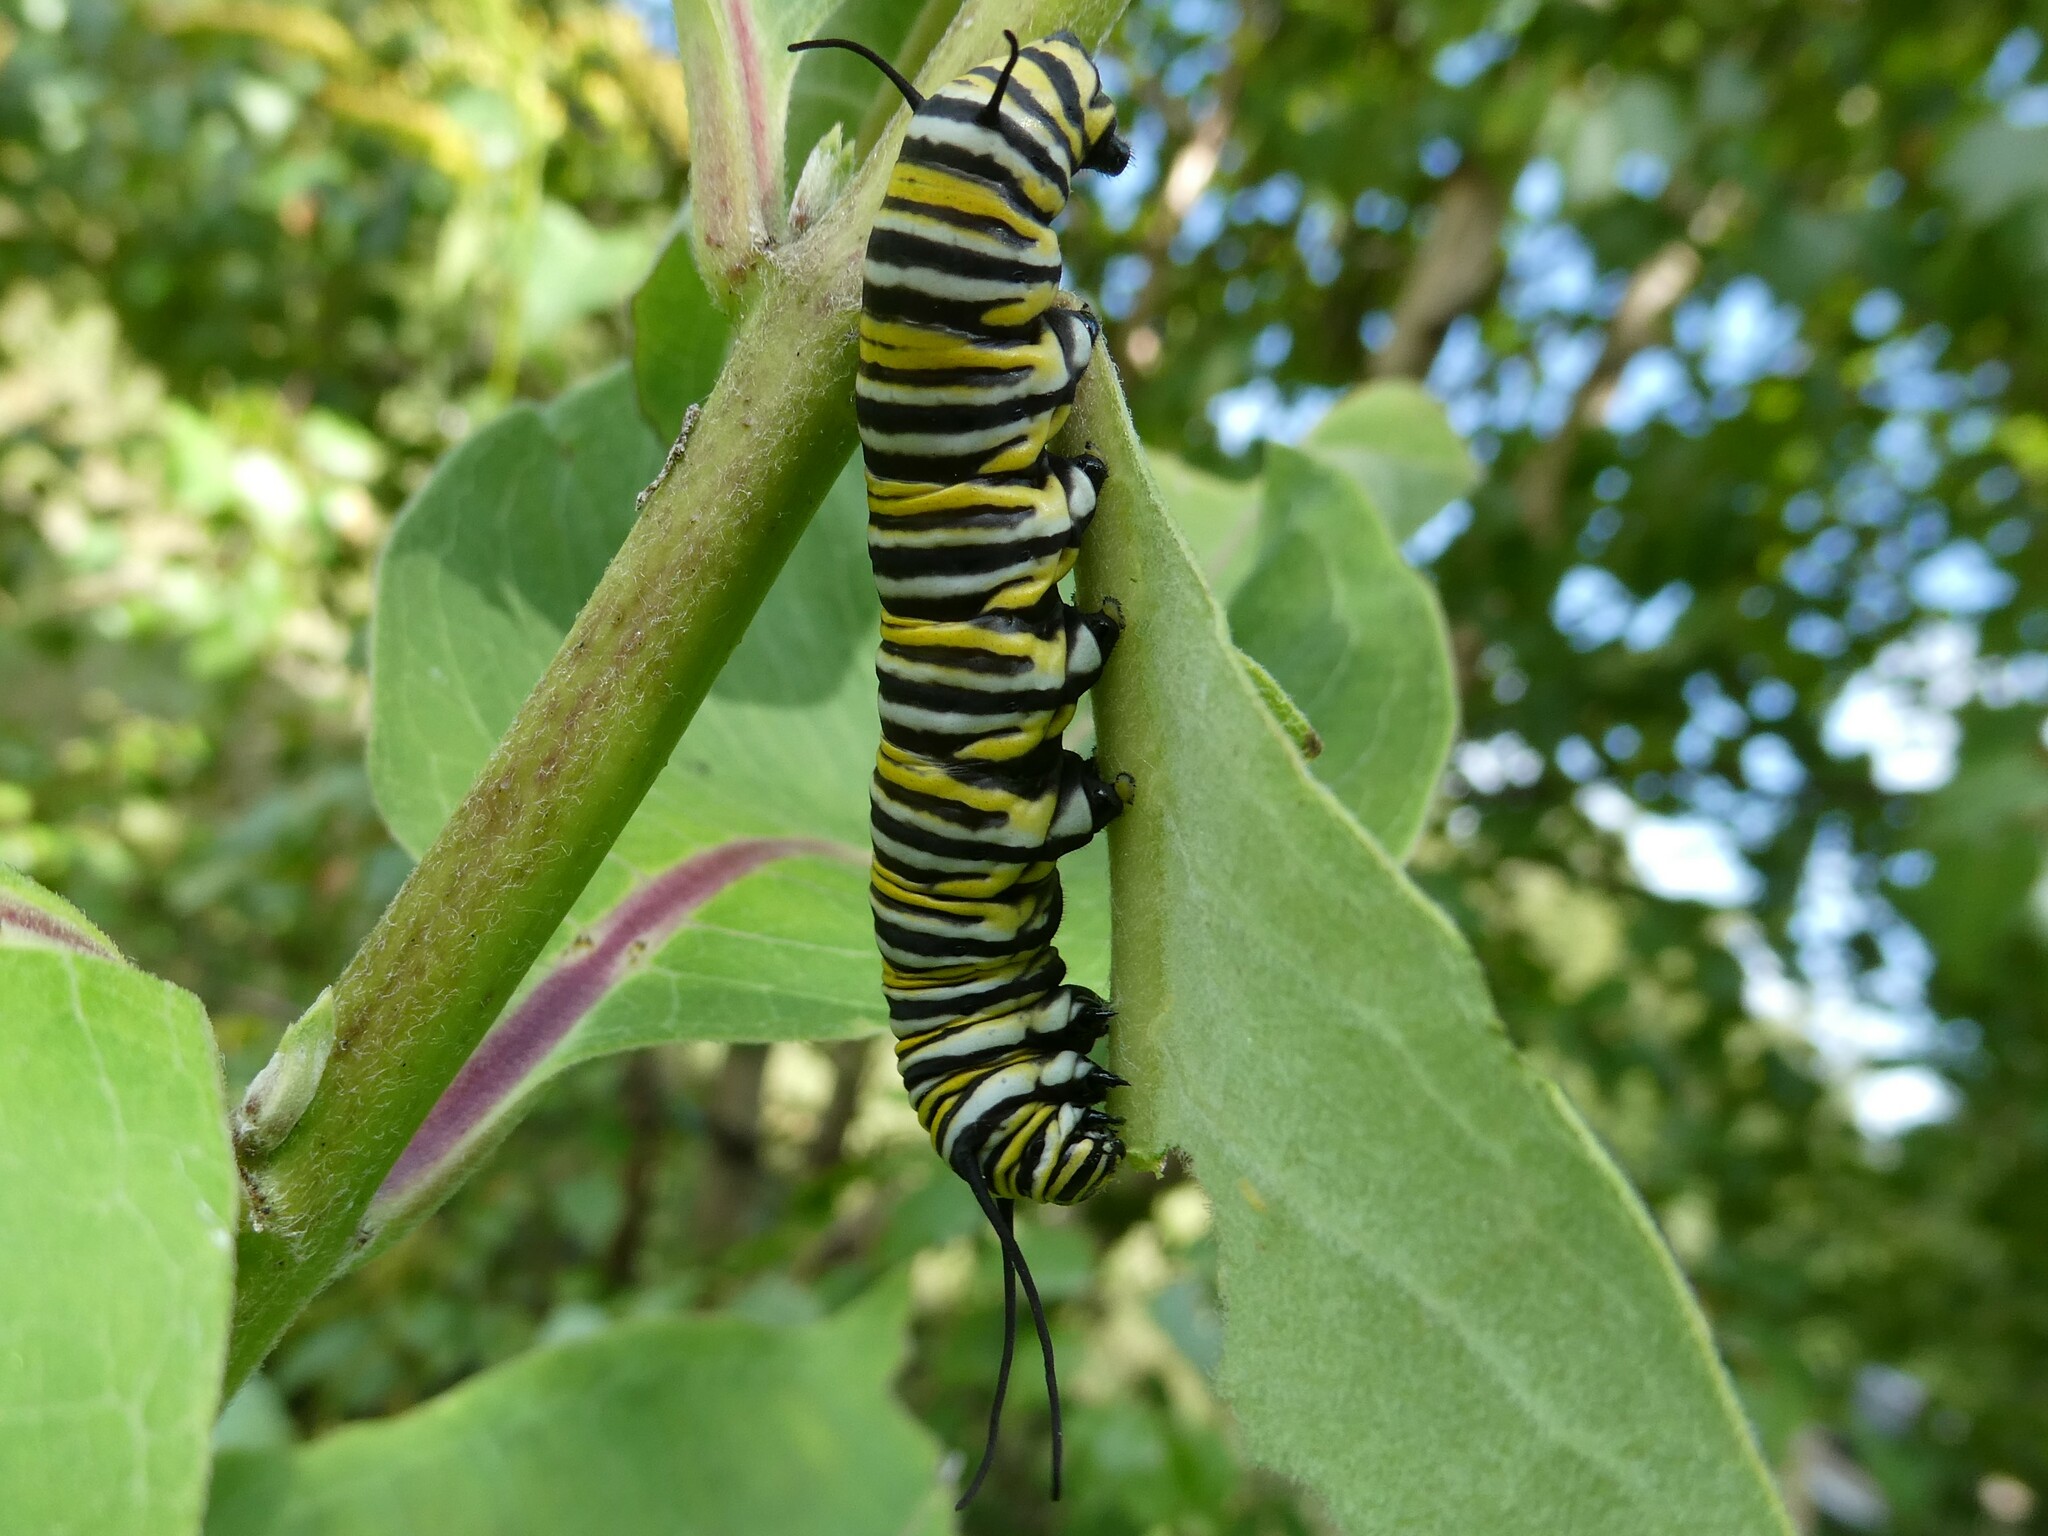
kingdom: Animalia
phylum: Arthropoda
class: Insecta
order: Lepidoptera
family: Nymphalidae
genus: Danaus
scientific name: Danaus plexippus
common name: Monarch
